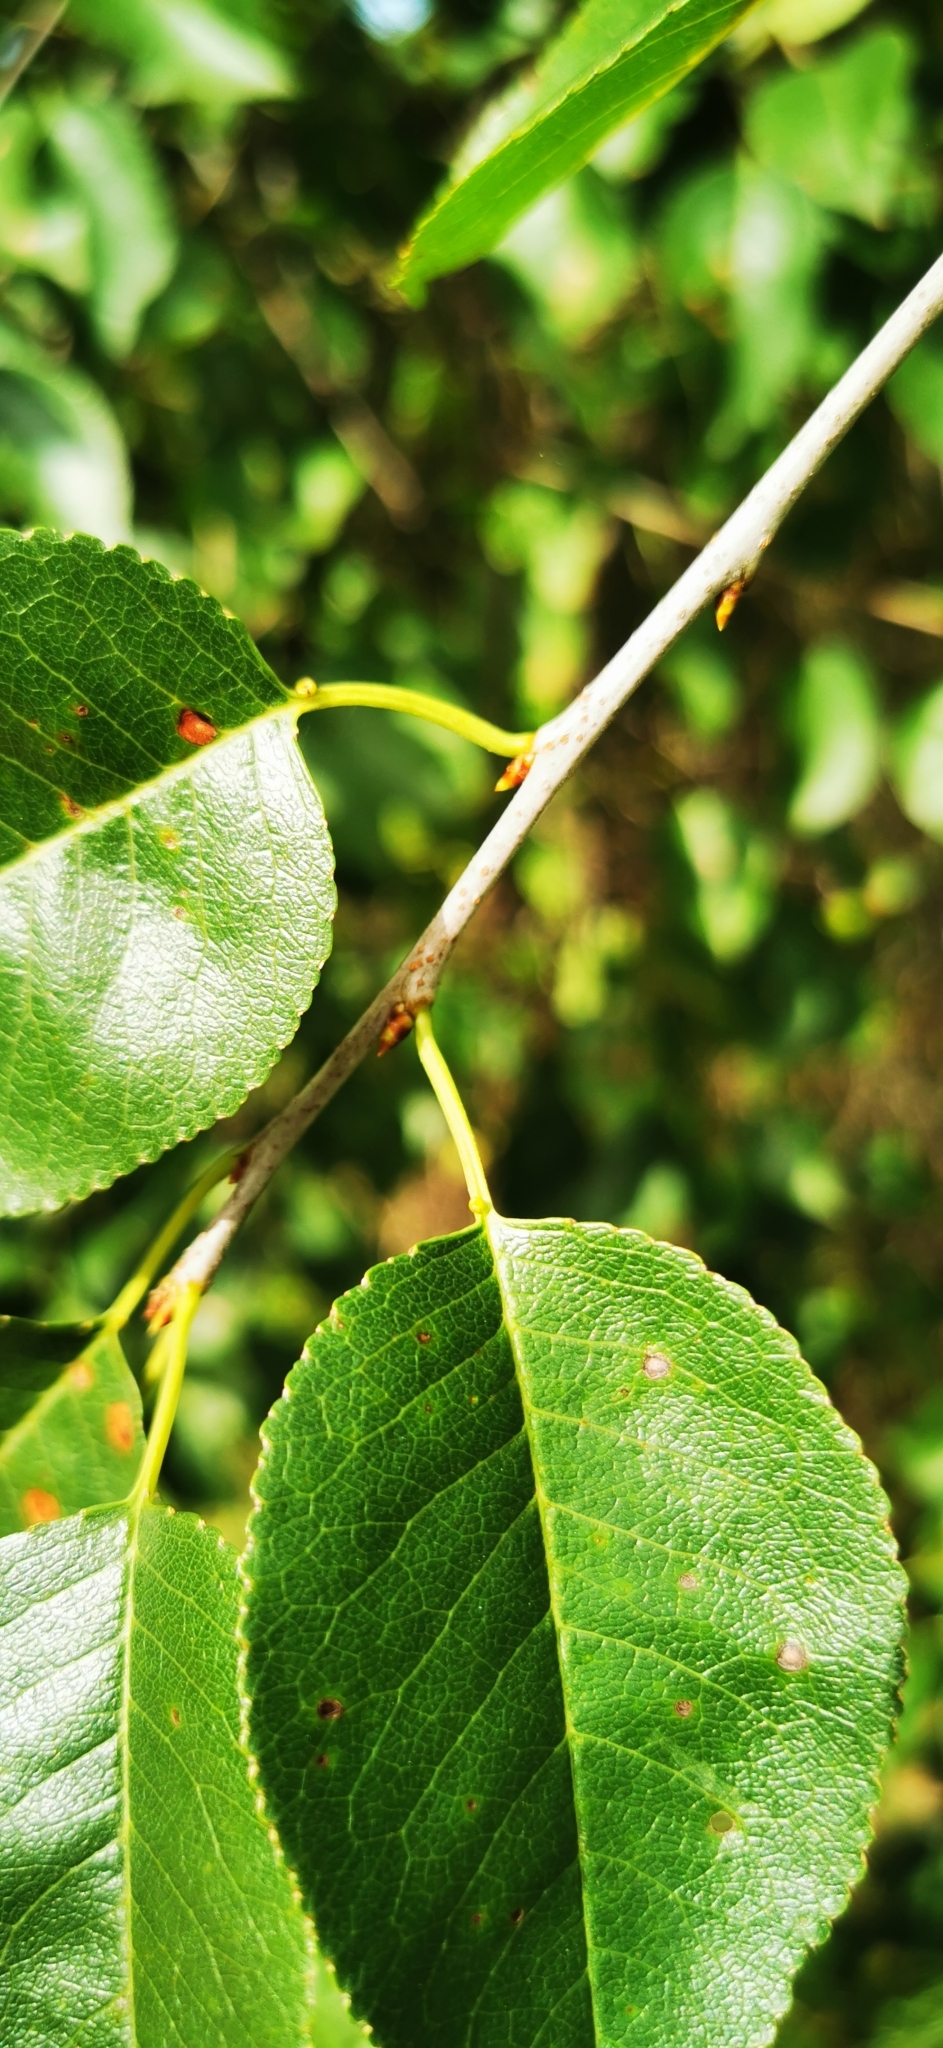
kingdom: Plantae
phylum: Tracheophyta
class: Magnoliopsida
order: Rosales
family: Rosaceae
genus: Prunus
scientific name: Prunus mahaleb
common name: Mahaleb cherry
